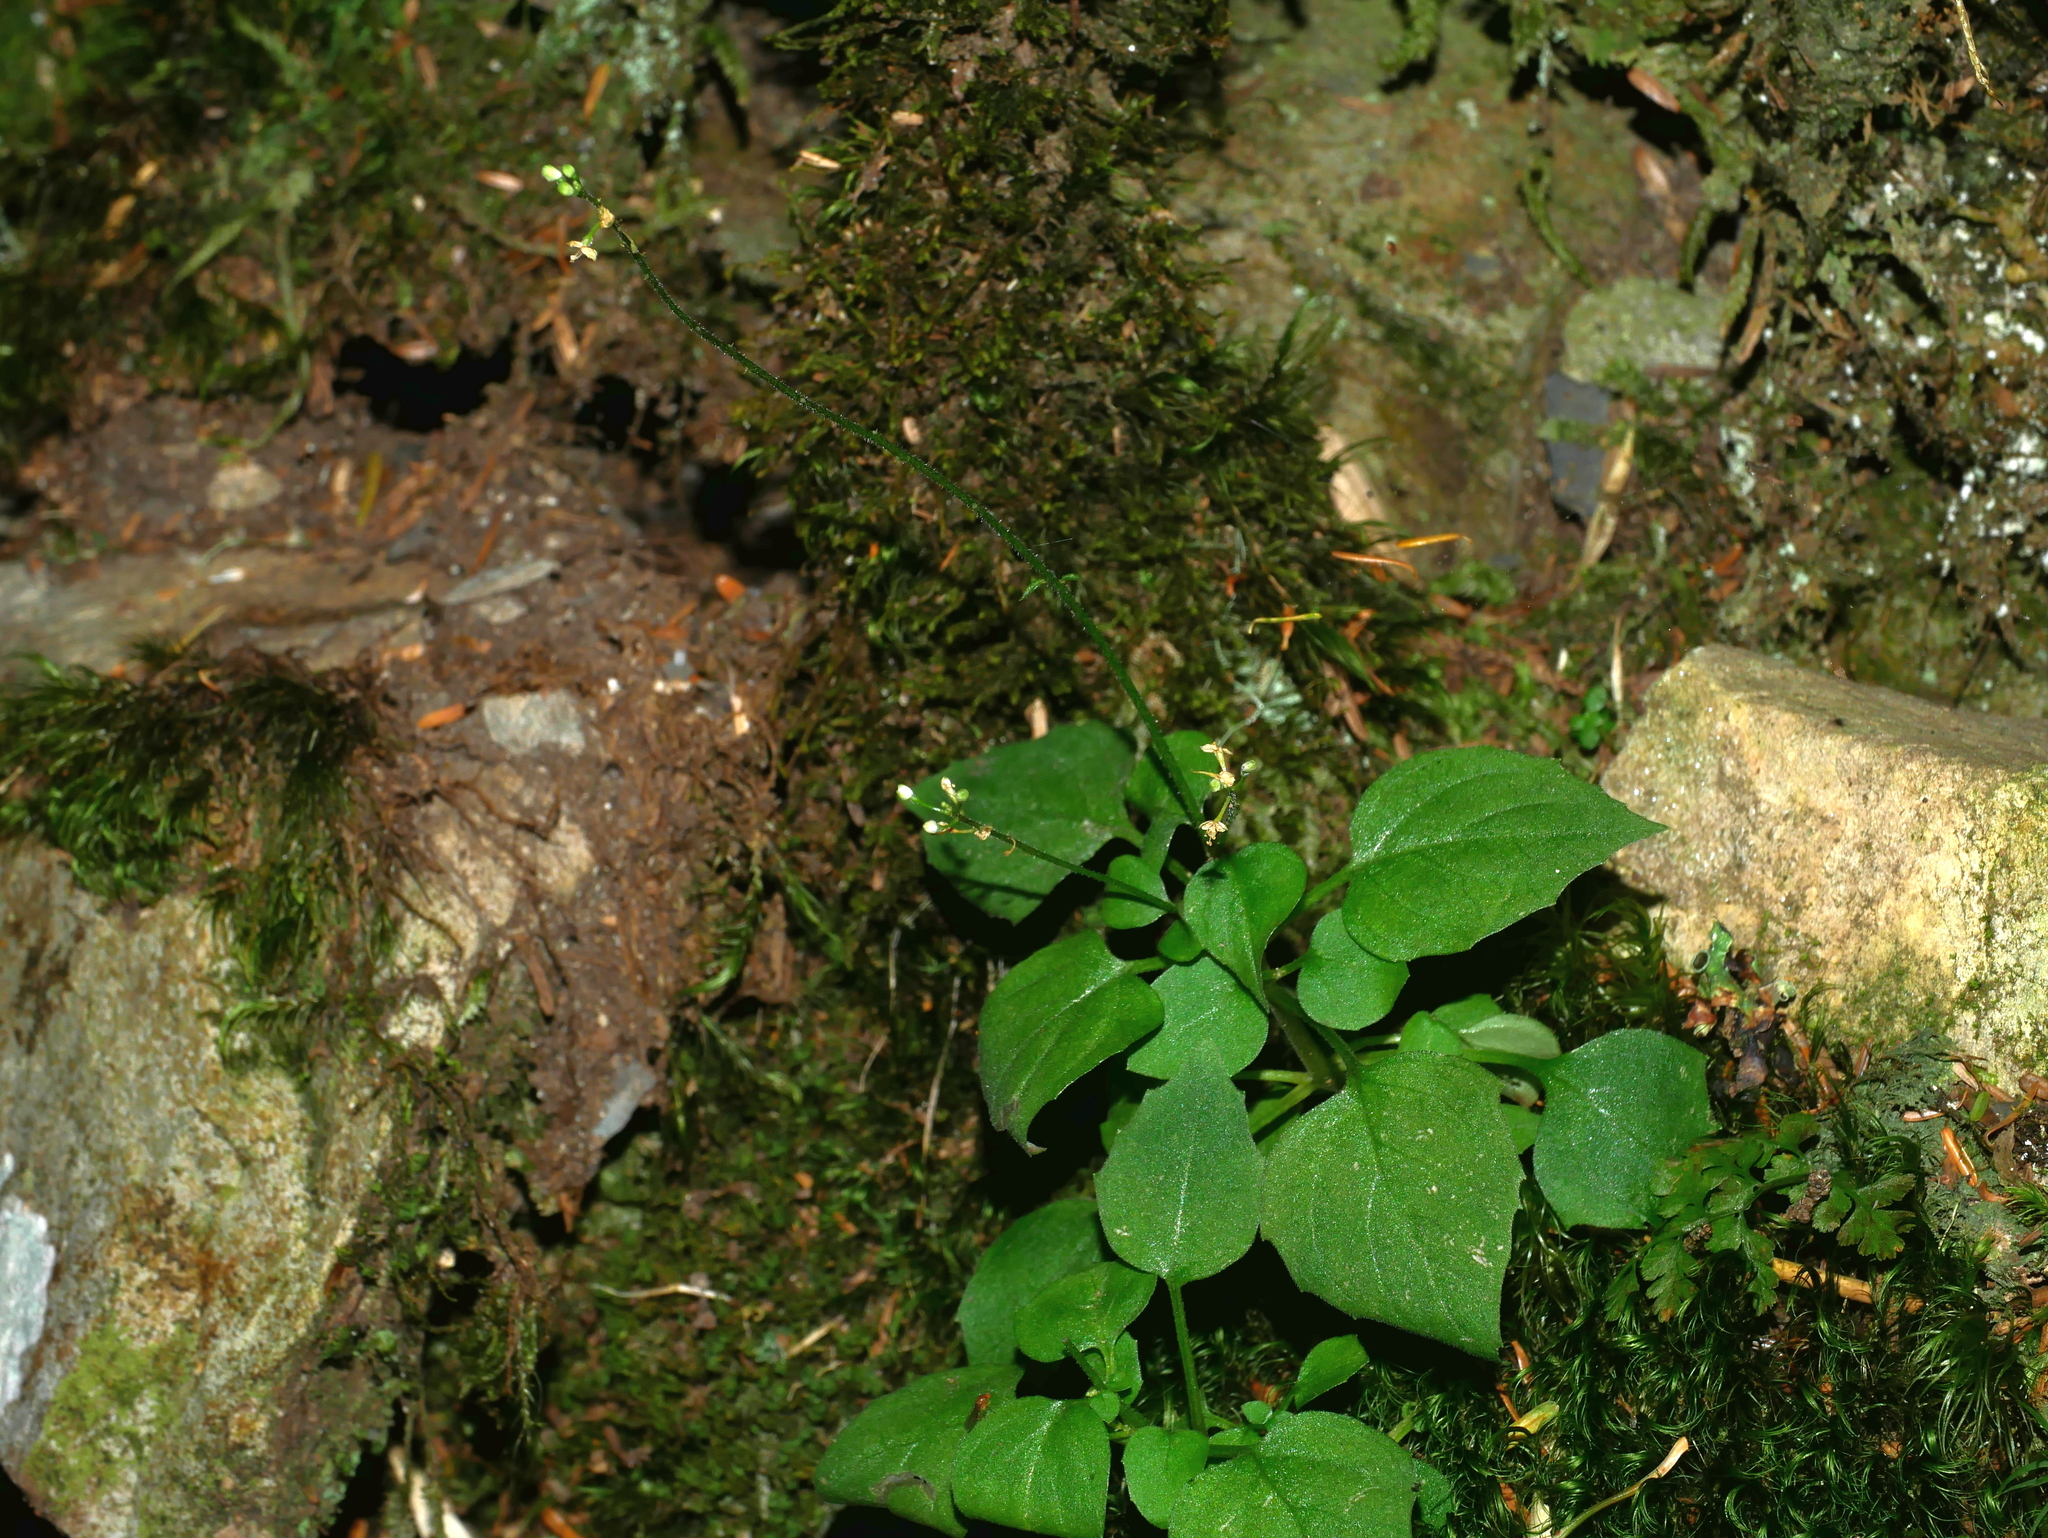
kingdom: Plantae
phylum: Tracheophyta
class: Magnoliopsida
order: Myrtales
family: Onagraceae
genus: Circaea
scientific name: Circaea alpina
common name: Alpine enchanter's-nightshade
